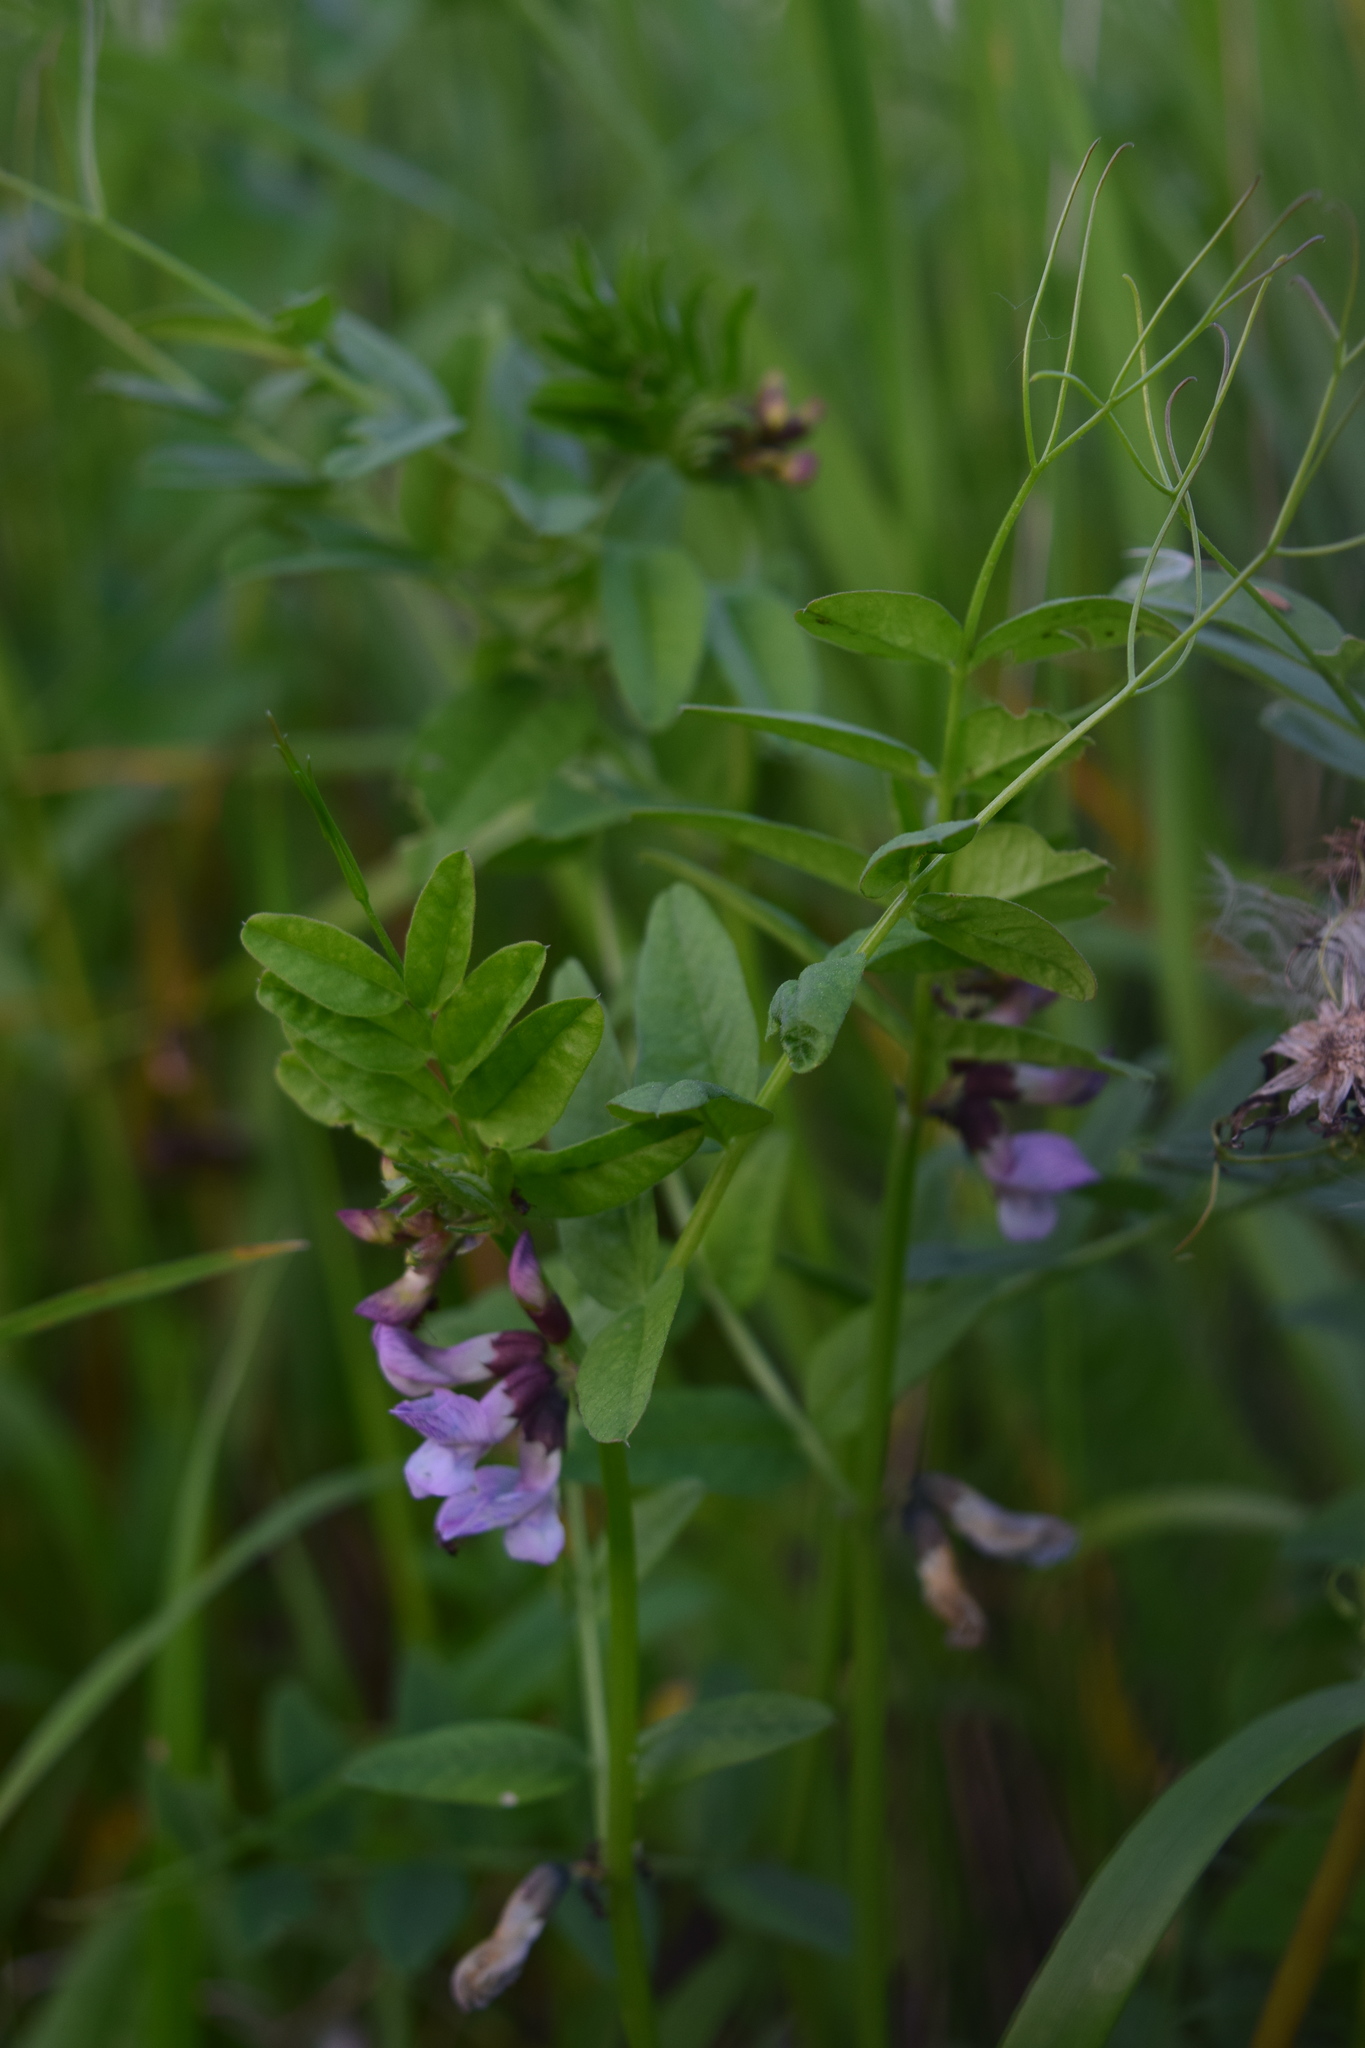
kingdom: Plantae
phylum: Tracheophyta
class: Magnoliopsida
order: Fabales
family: Fabaceae
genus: Vicia
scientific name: Vicia sepium
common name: Bush vetch
